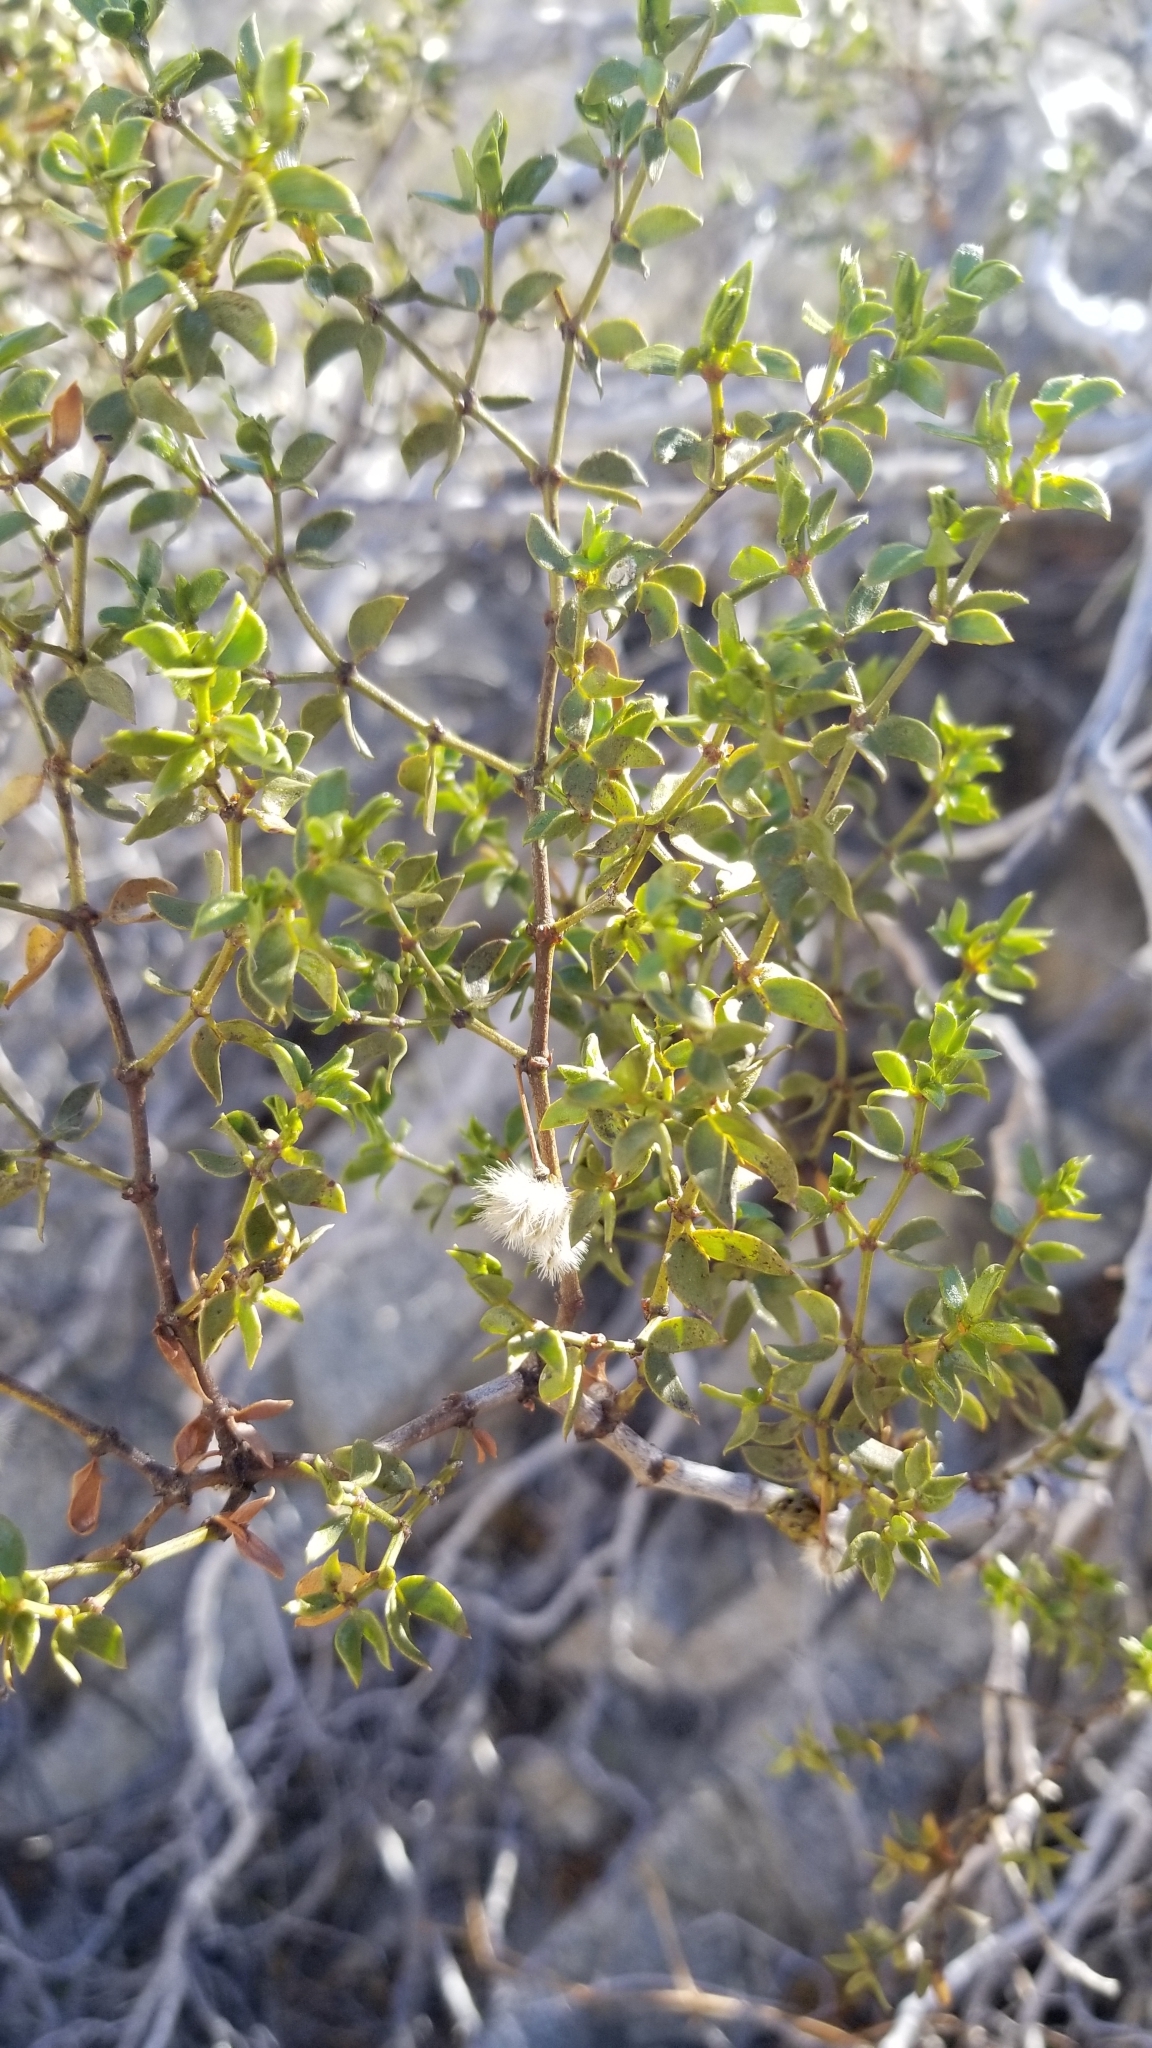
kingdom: Plantae
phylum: Tracheophyta
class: Magnoliopsida
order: Zygophyllales
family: Zygophyllaceae
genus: Larrea
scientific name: Larrea tridentata
